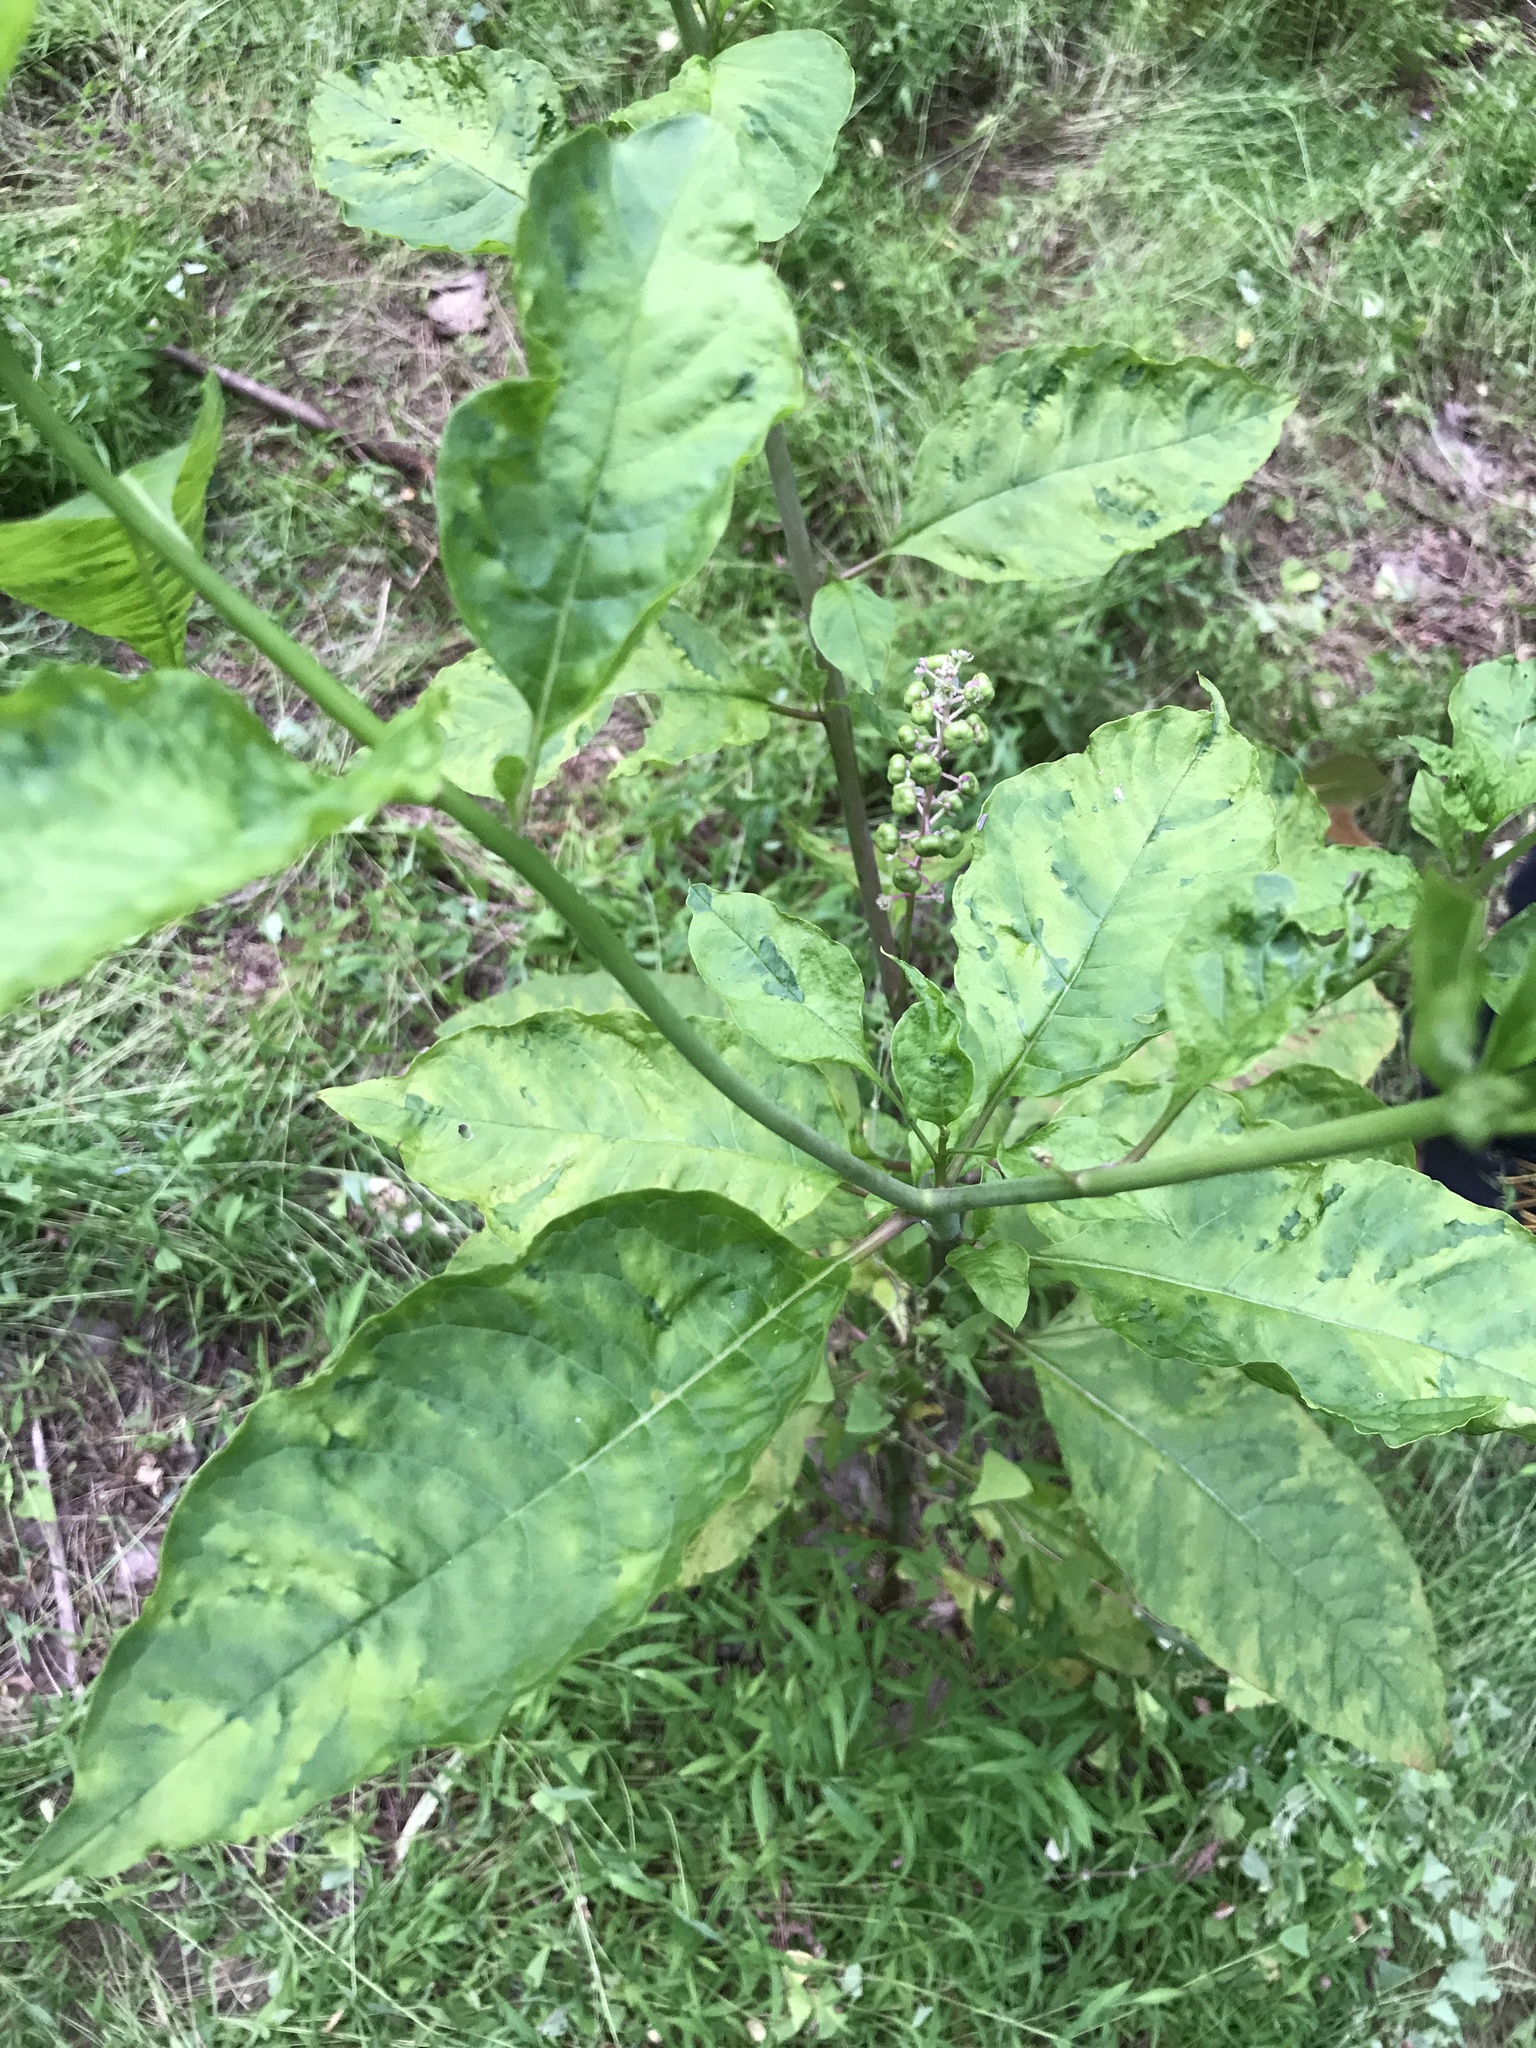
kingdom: Viruses
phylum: Pisuviricota
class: Stelpaviricetes
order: Patatavirales
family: Potyviridae
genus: Potyvirus
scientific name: Potyvirus Pokeweed mosaic virus
